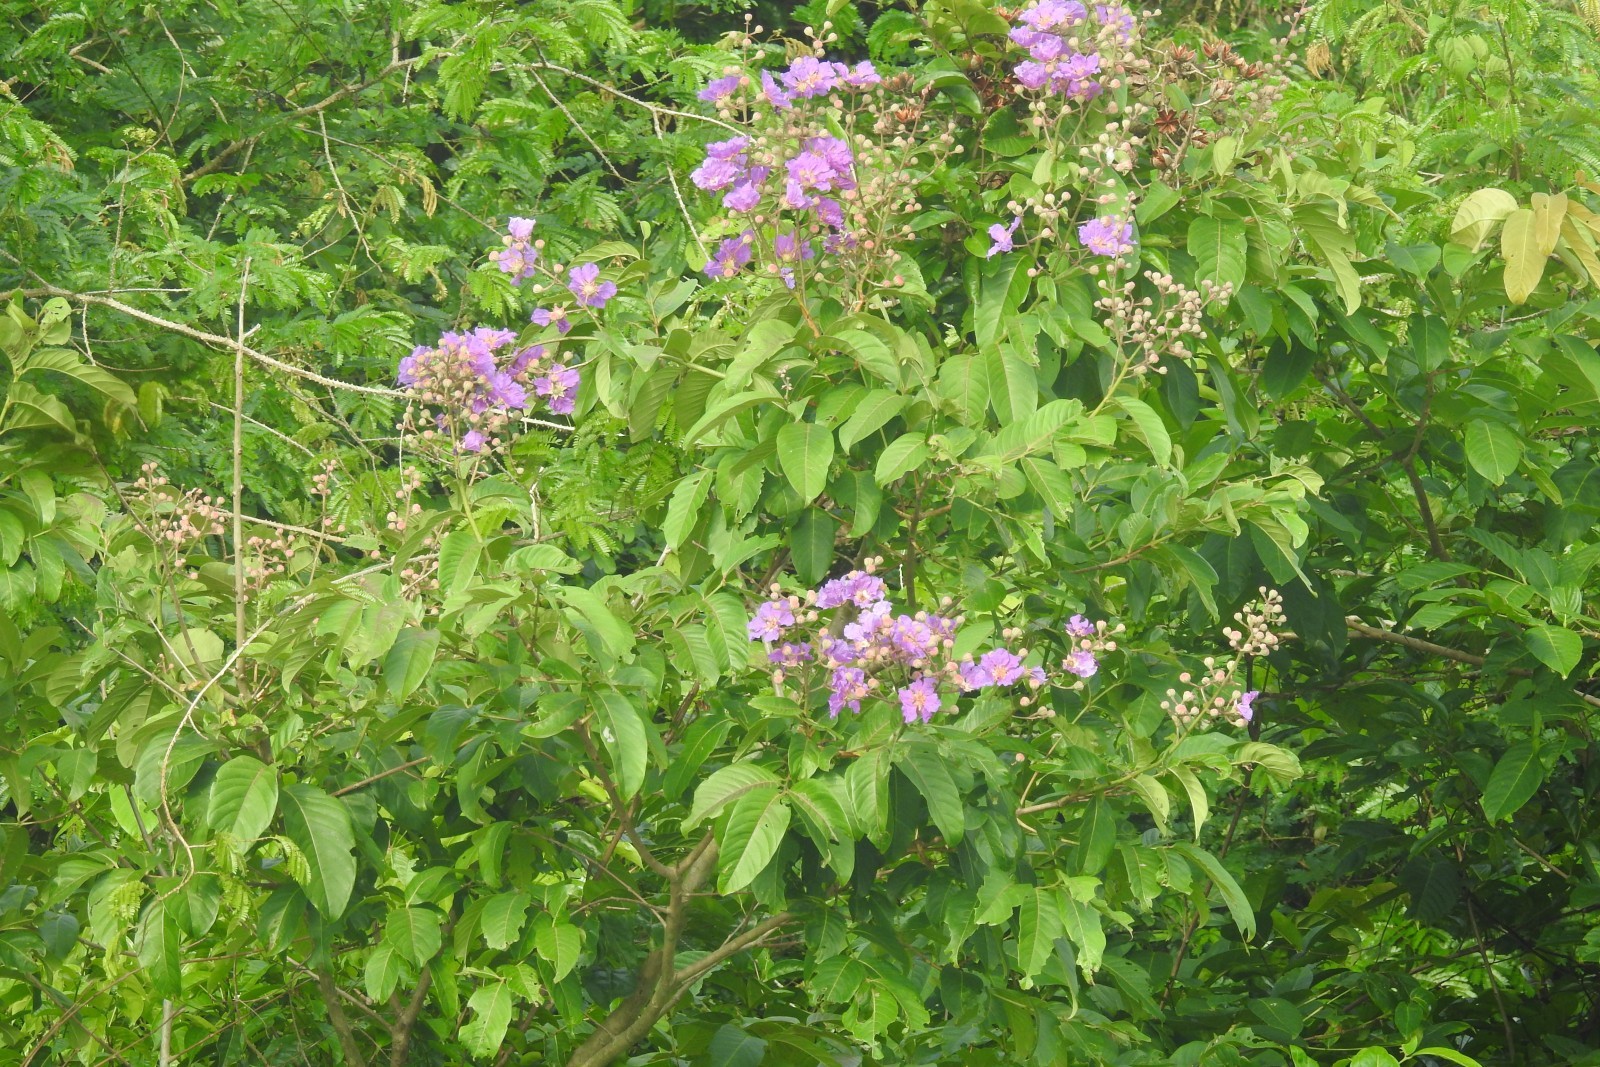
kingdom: Plantae
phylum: Tracheophyta
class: Magnoliopsida
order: Myrtales
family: Lythraceae
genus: Lagerstroemia
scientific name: Lagerstroemia speciosa
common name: Queen's crape-myrtle
